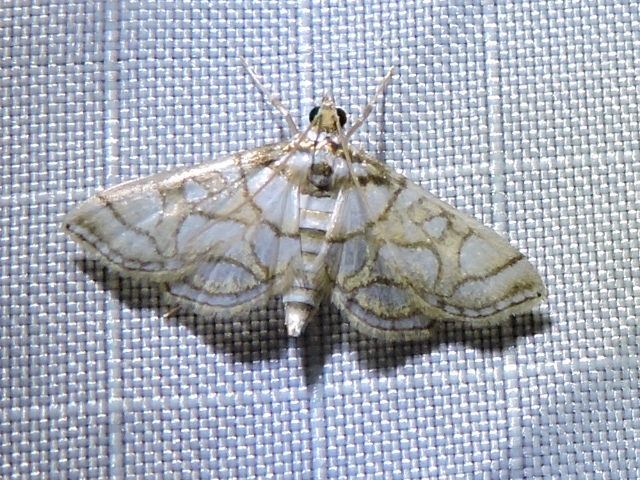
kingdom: Animalia
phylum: Arthropoda
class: Insecta
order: Lepidoptera
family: Crambidae
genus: Pseudopyrausta
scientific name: Pseudopyrausta santatalis
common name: Moth
